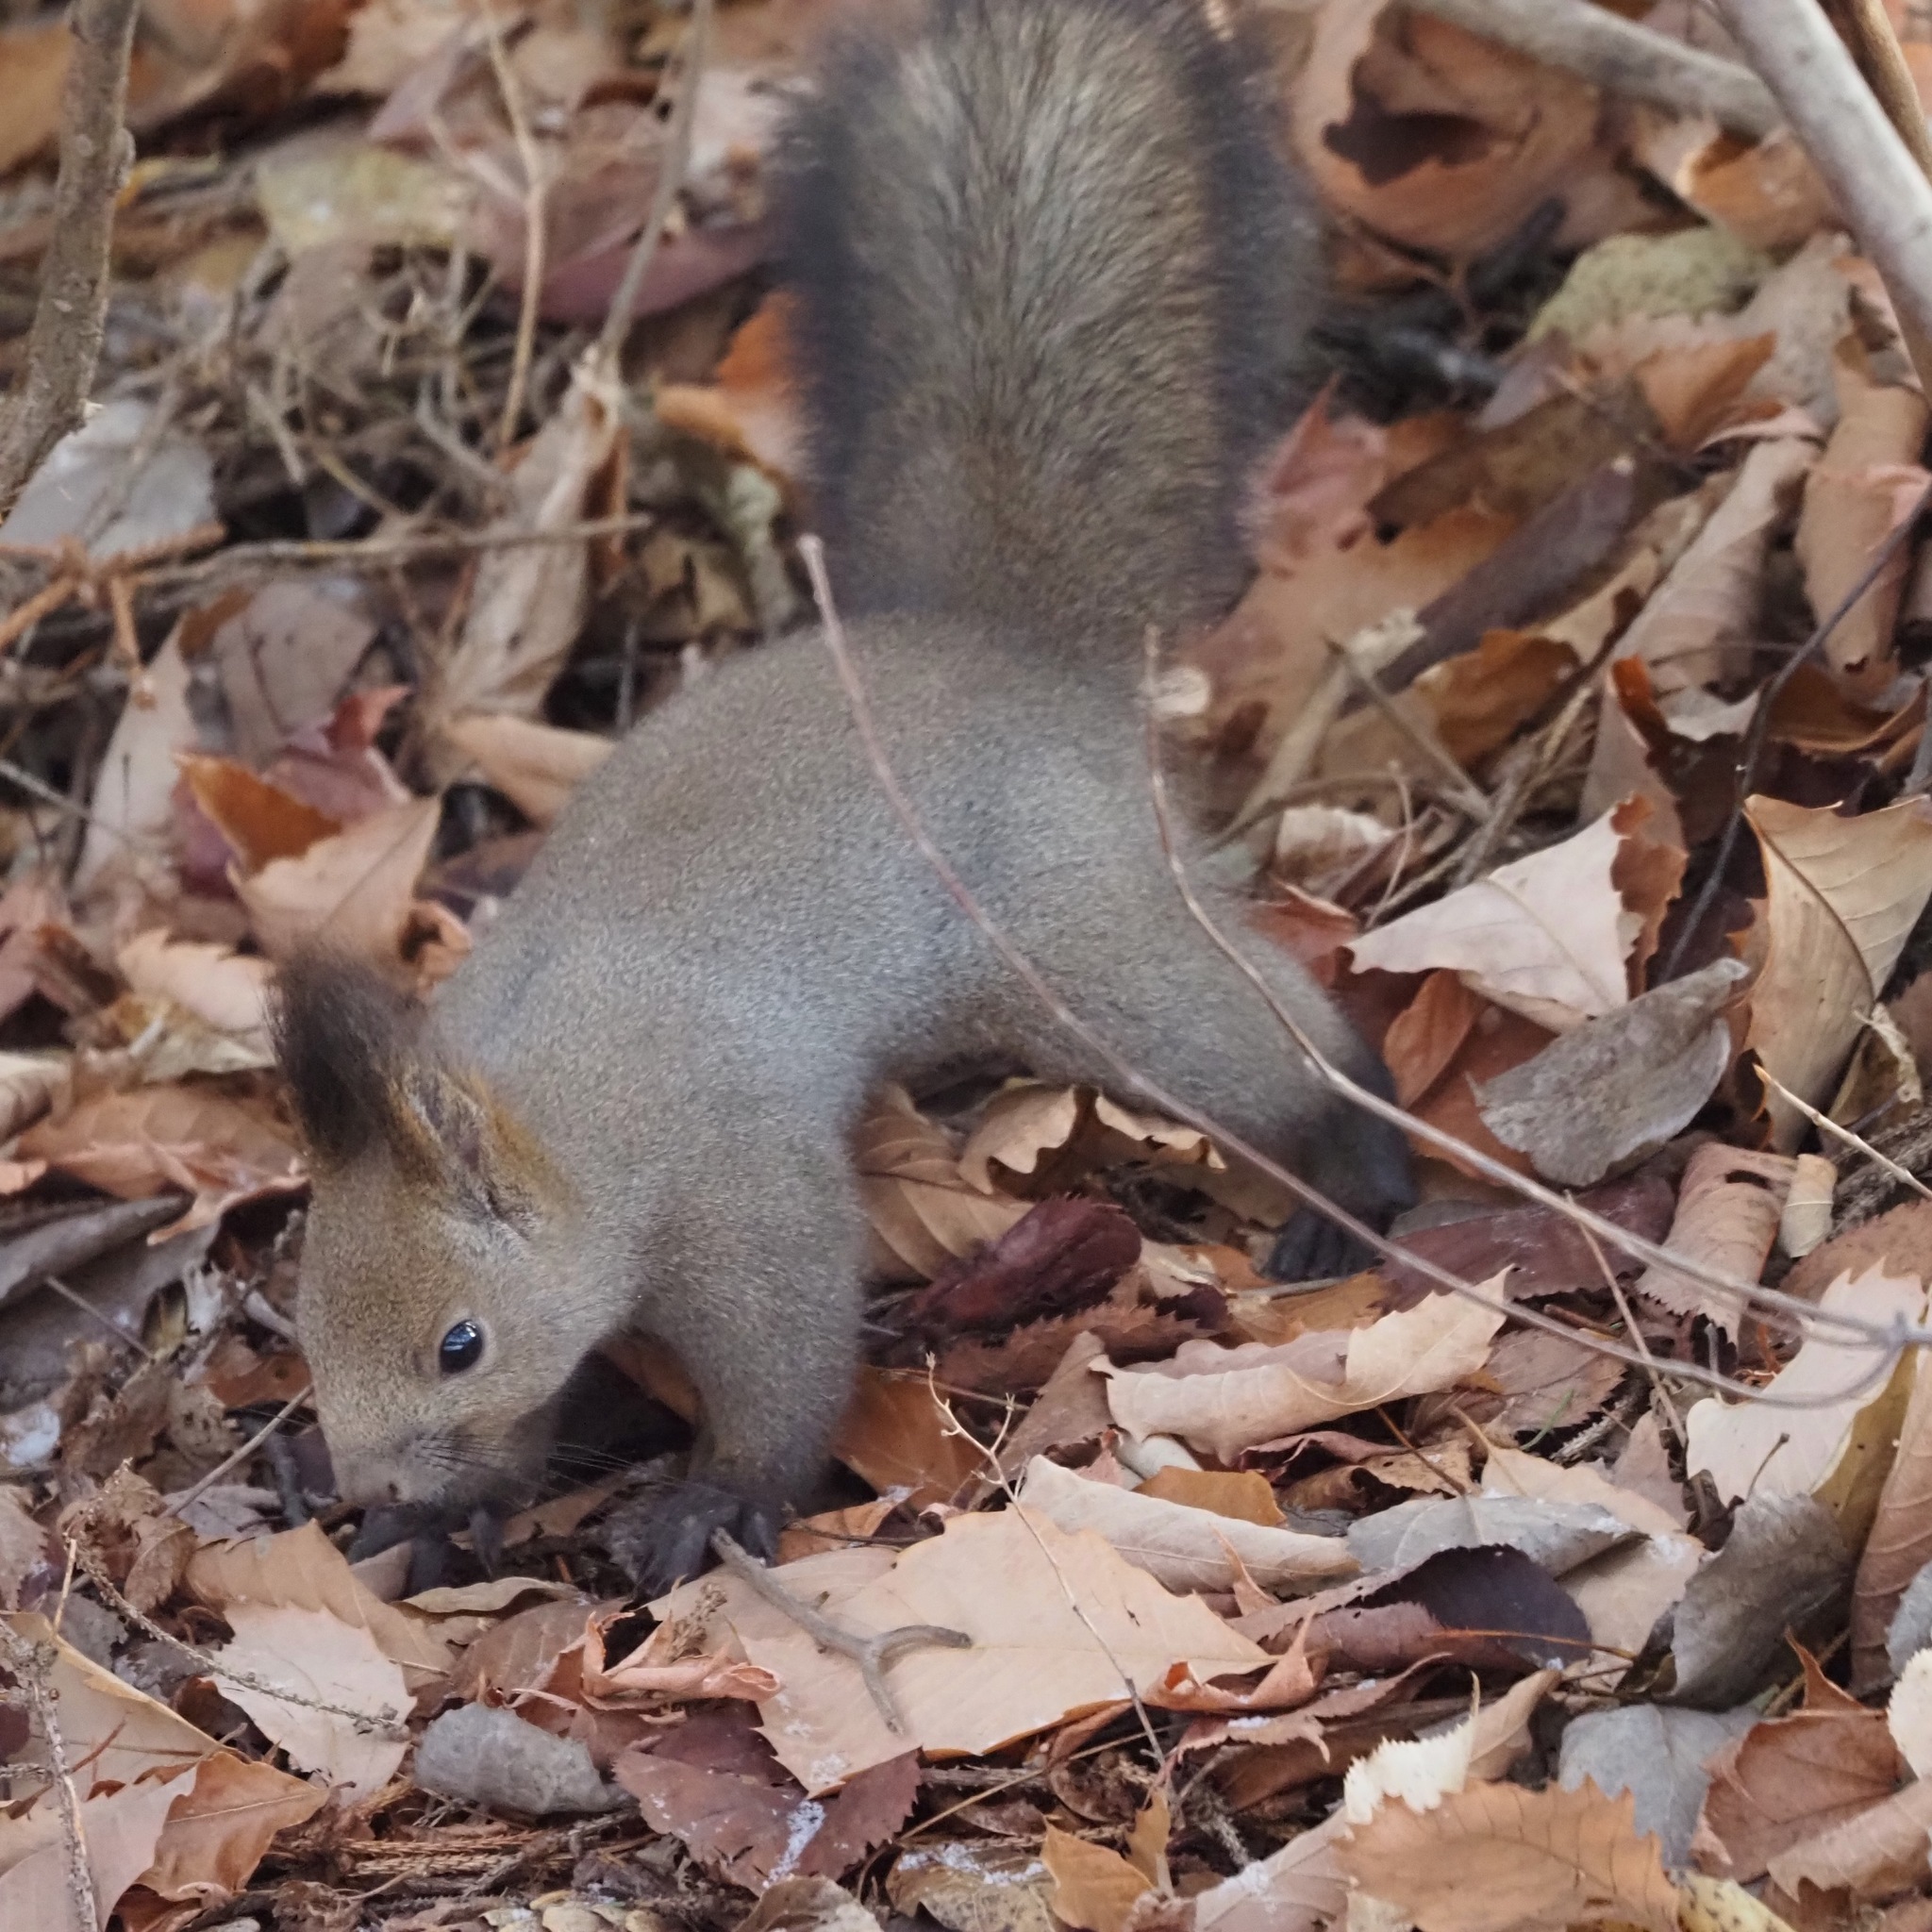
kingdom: Animalia
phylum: Chordata
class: Mammalia
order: Rodentia
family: Sciuridae
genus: Sciurus
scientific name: Sciurus vulgaris
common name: Eurasian red squirrel
